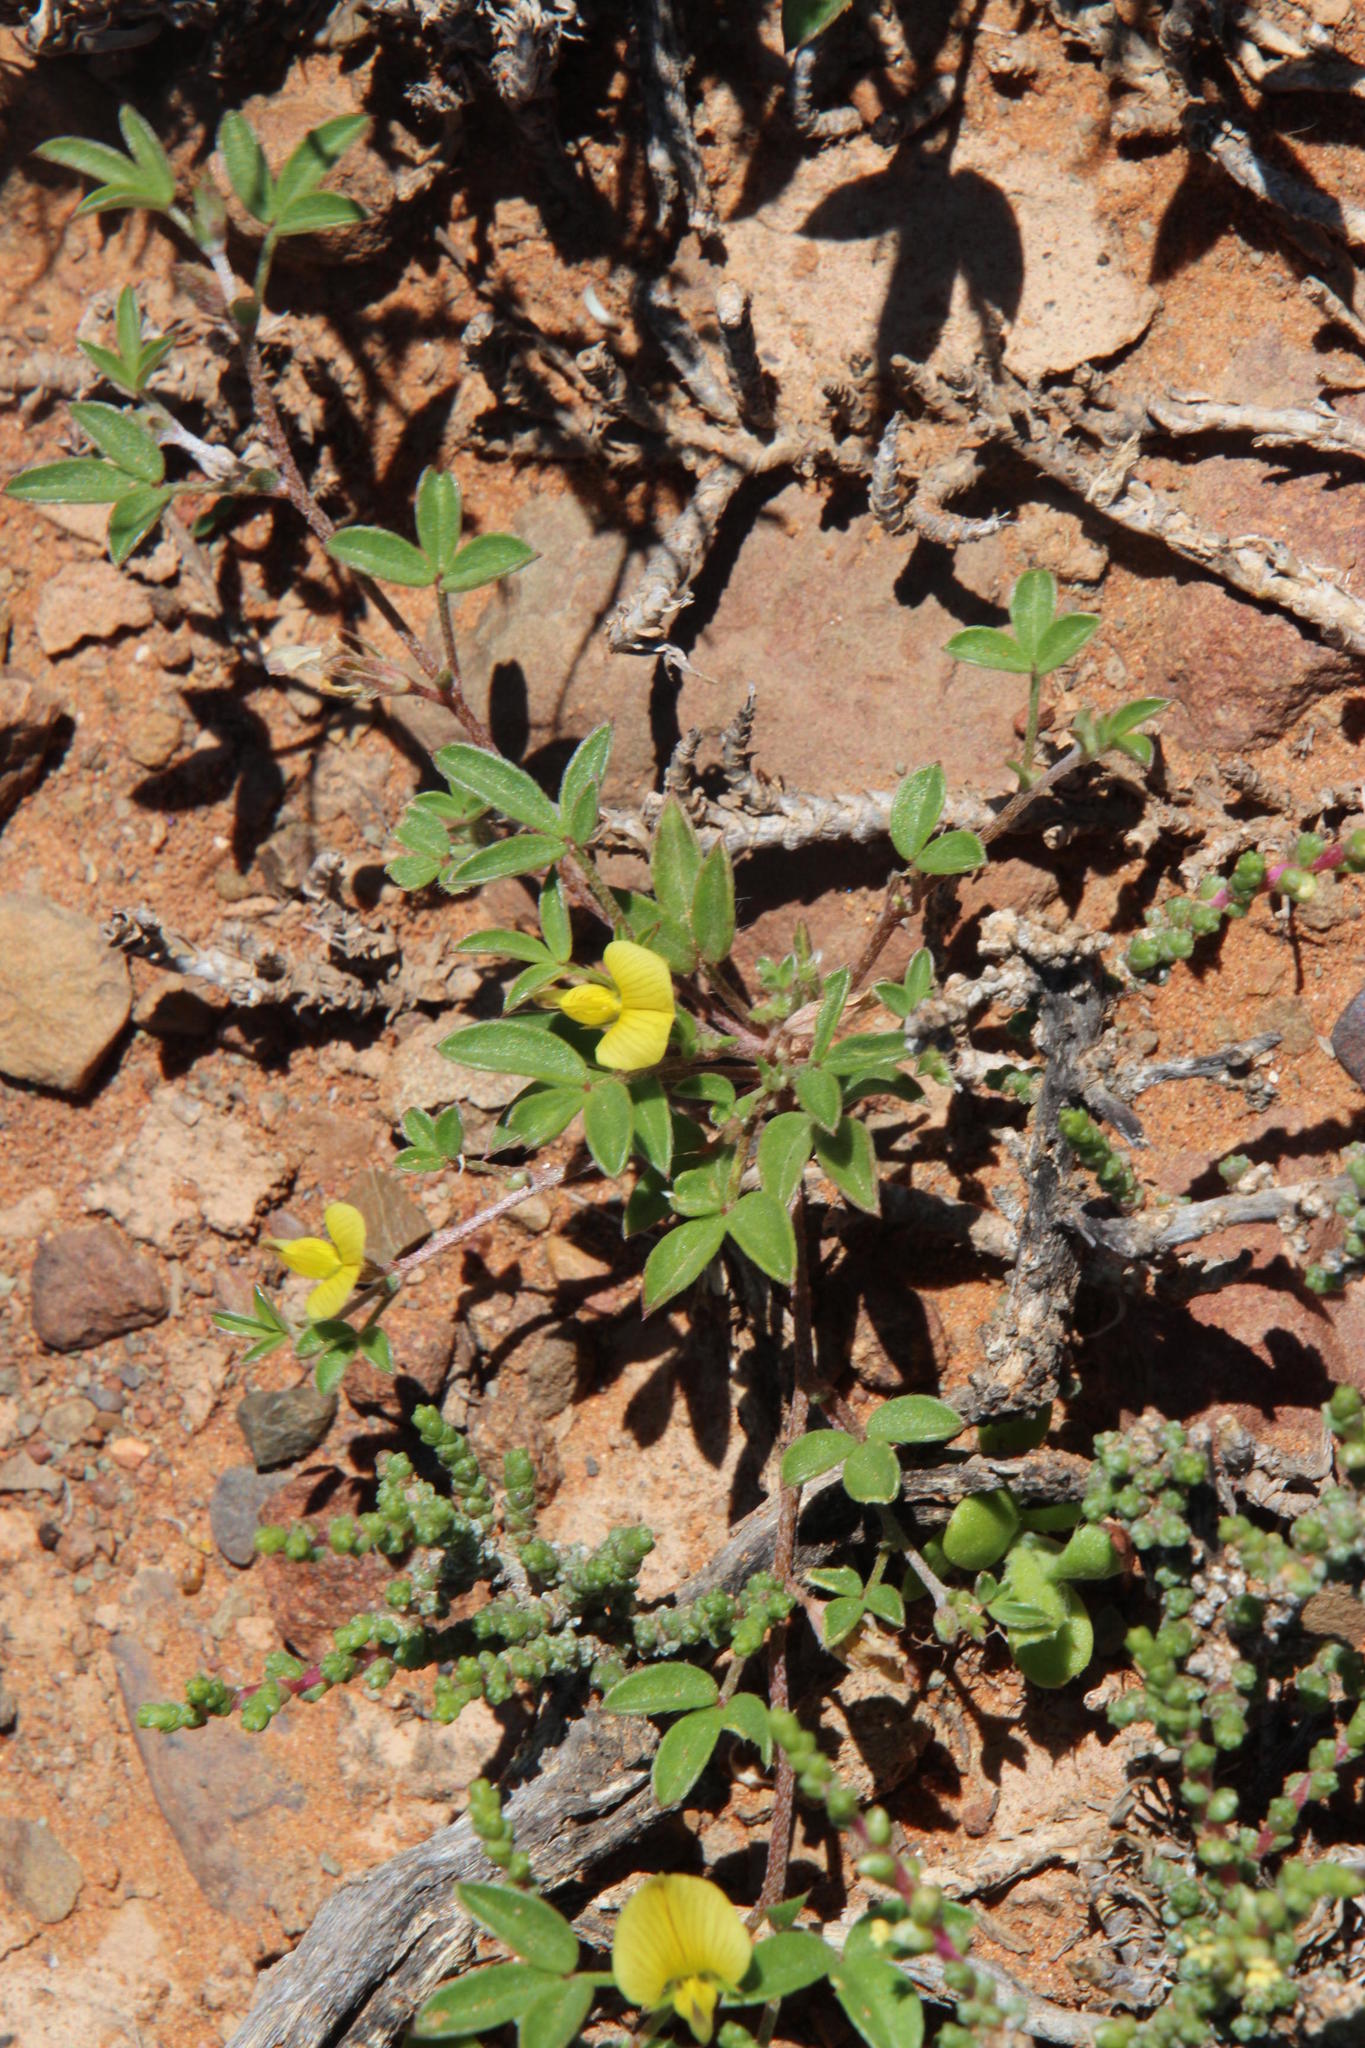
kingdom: Plantae
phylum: Tracheophyta
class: Magnoliopsida
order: Fabales
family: Fabaceae
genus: Lotononis
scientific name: Lotononis pungens
